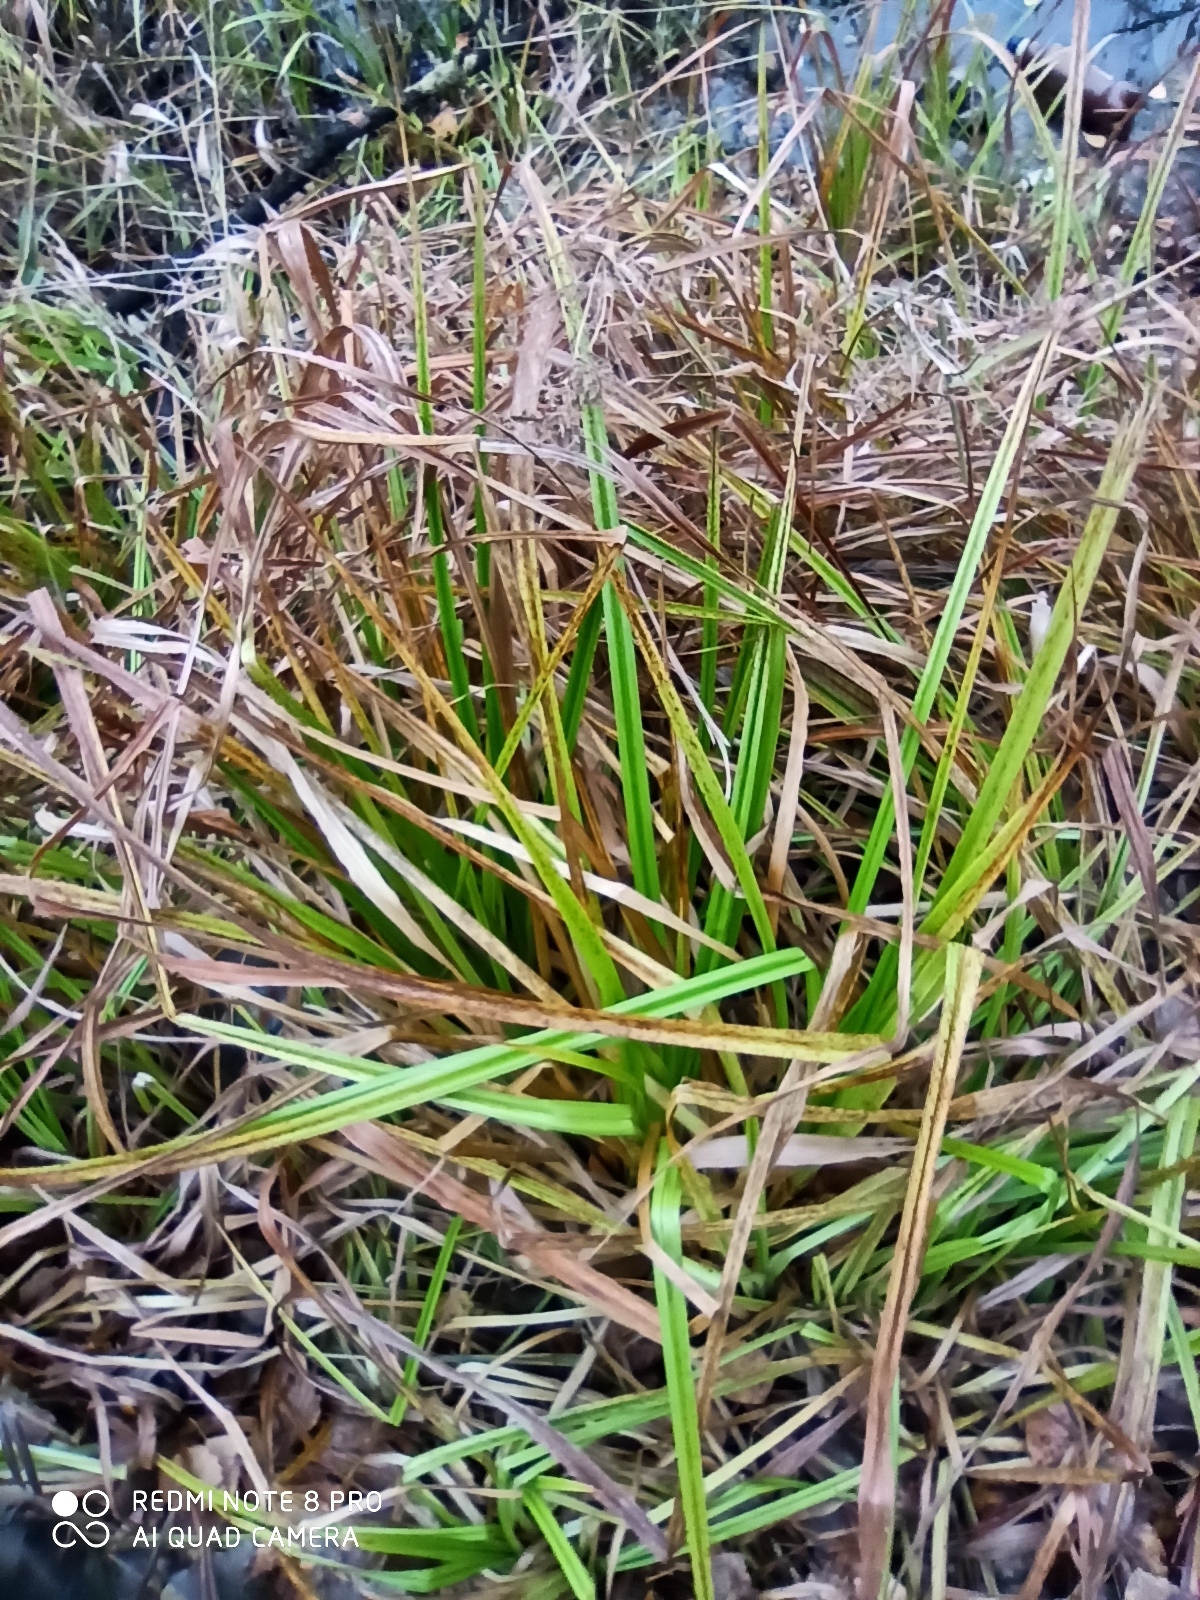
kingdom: Plantae
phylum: Tracheophyta
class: Liliopsida
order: Poales
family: Cyperaceae
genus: Scirpus
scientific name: Scirpus sylvaticus
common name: Wood club-rush
